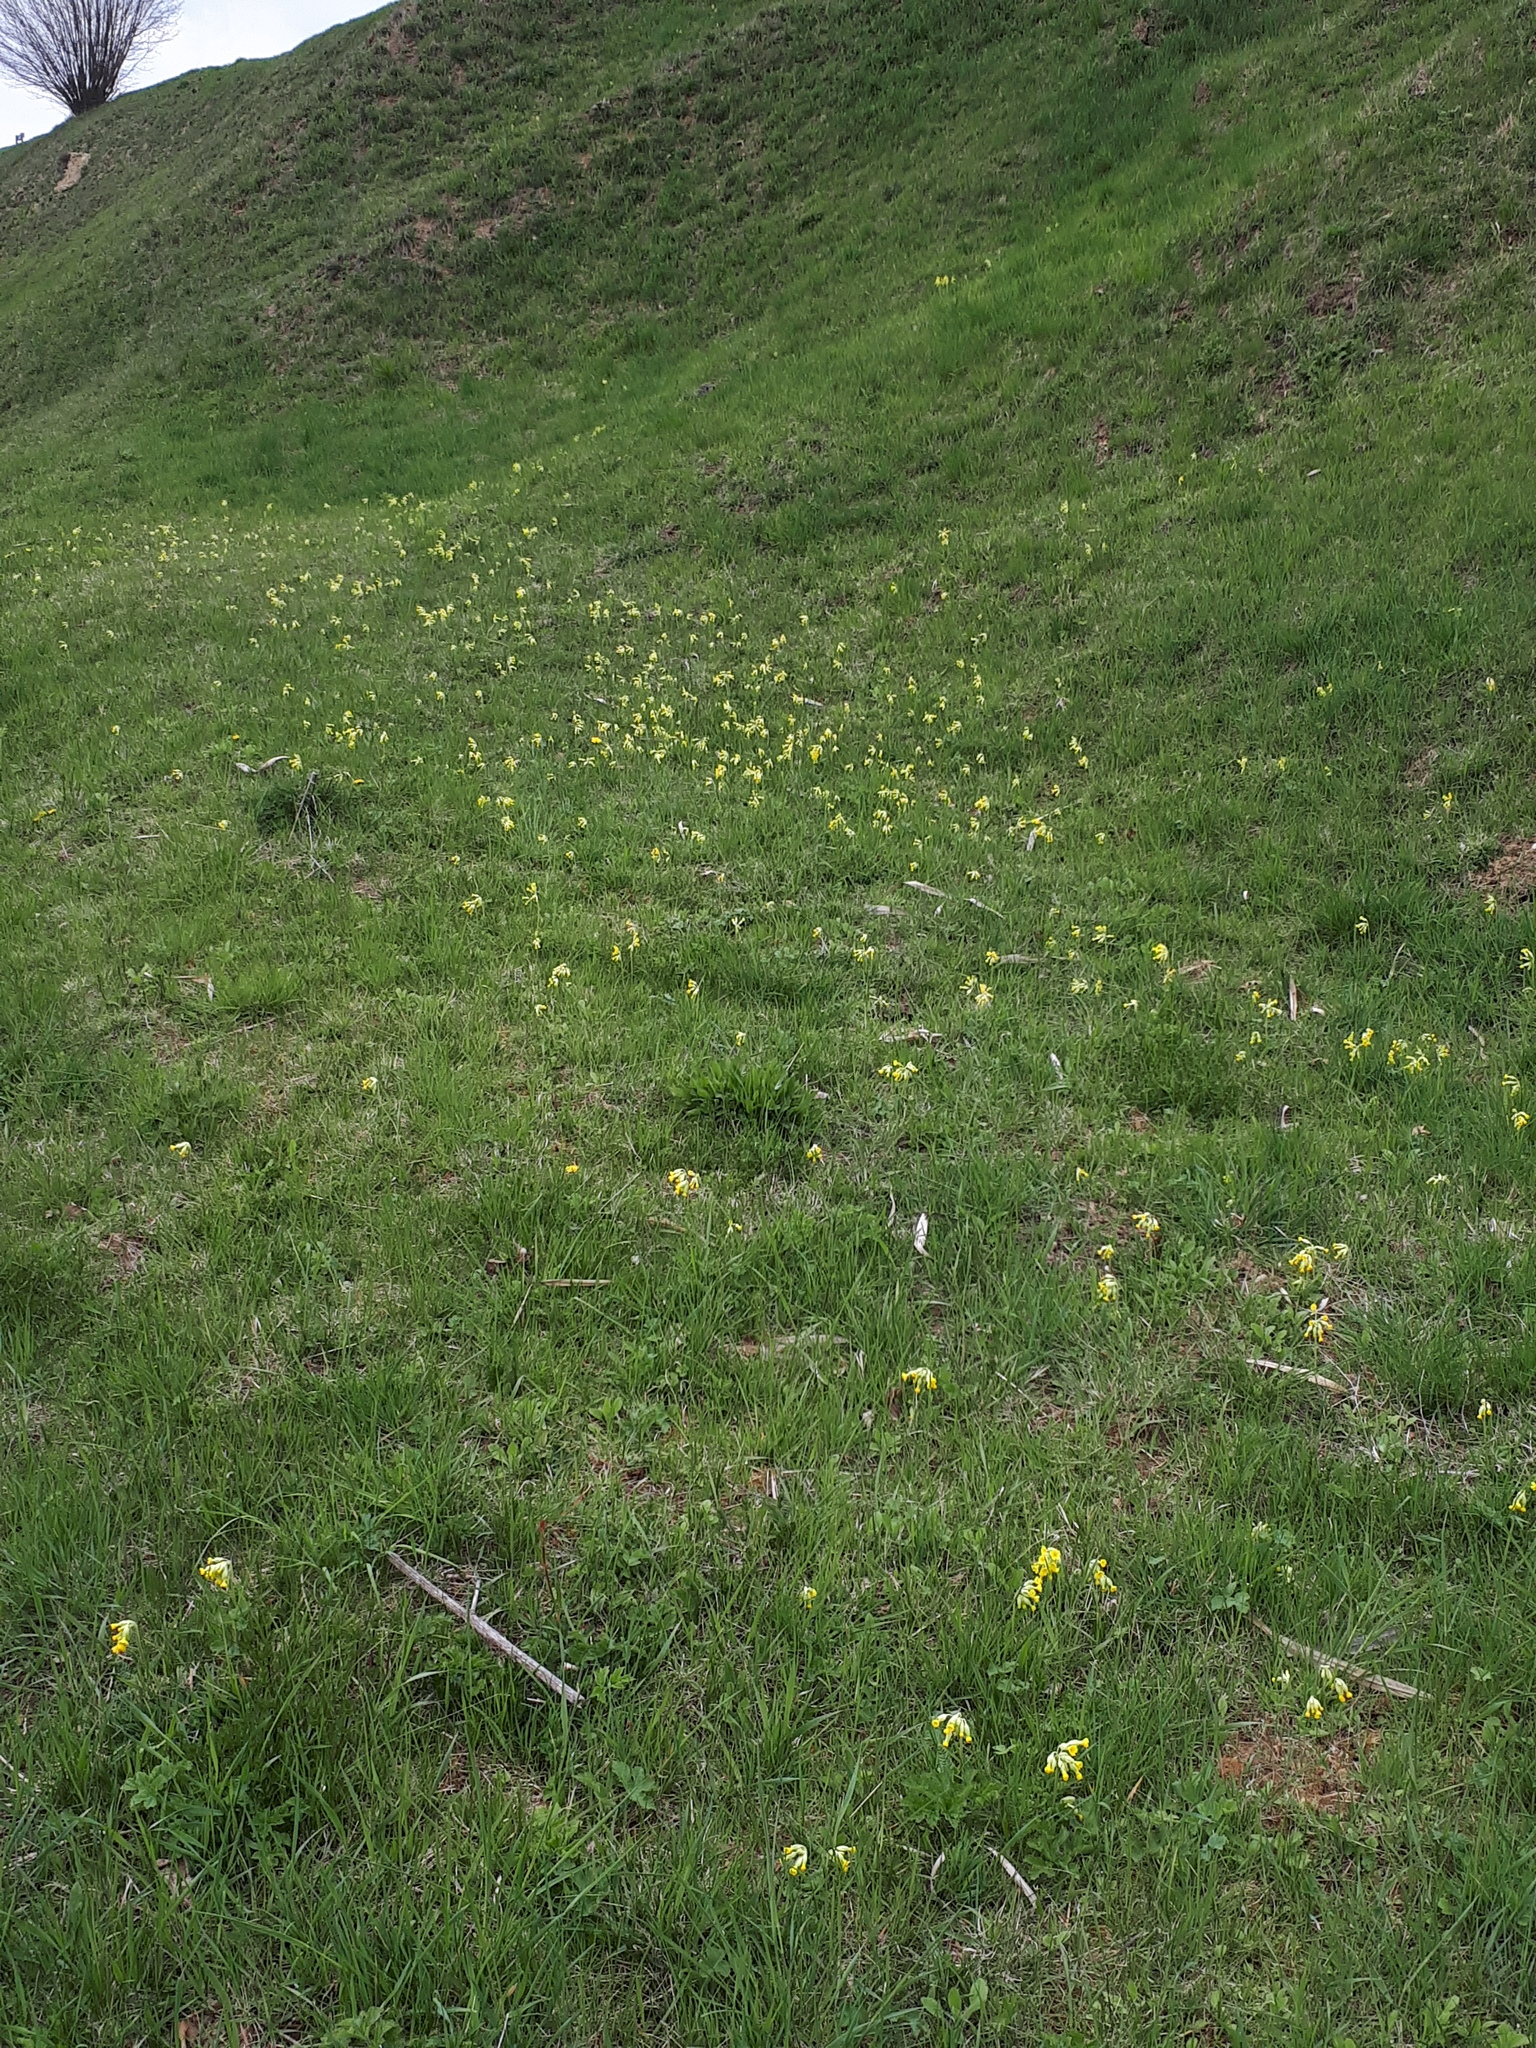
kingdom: Plantae
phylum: Tracheophyta
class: Magnoliopsida
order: Ericales
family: Primulaceae
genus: Primula
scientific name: Primula veris
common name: Cowslip
